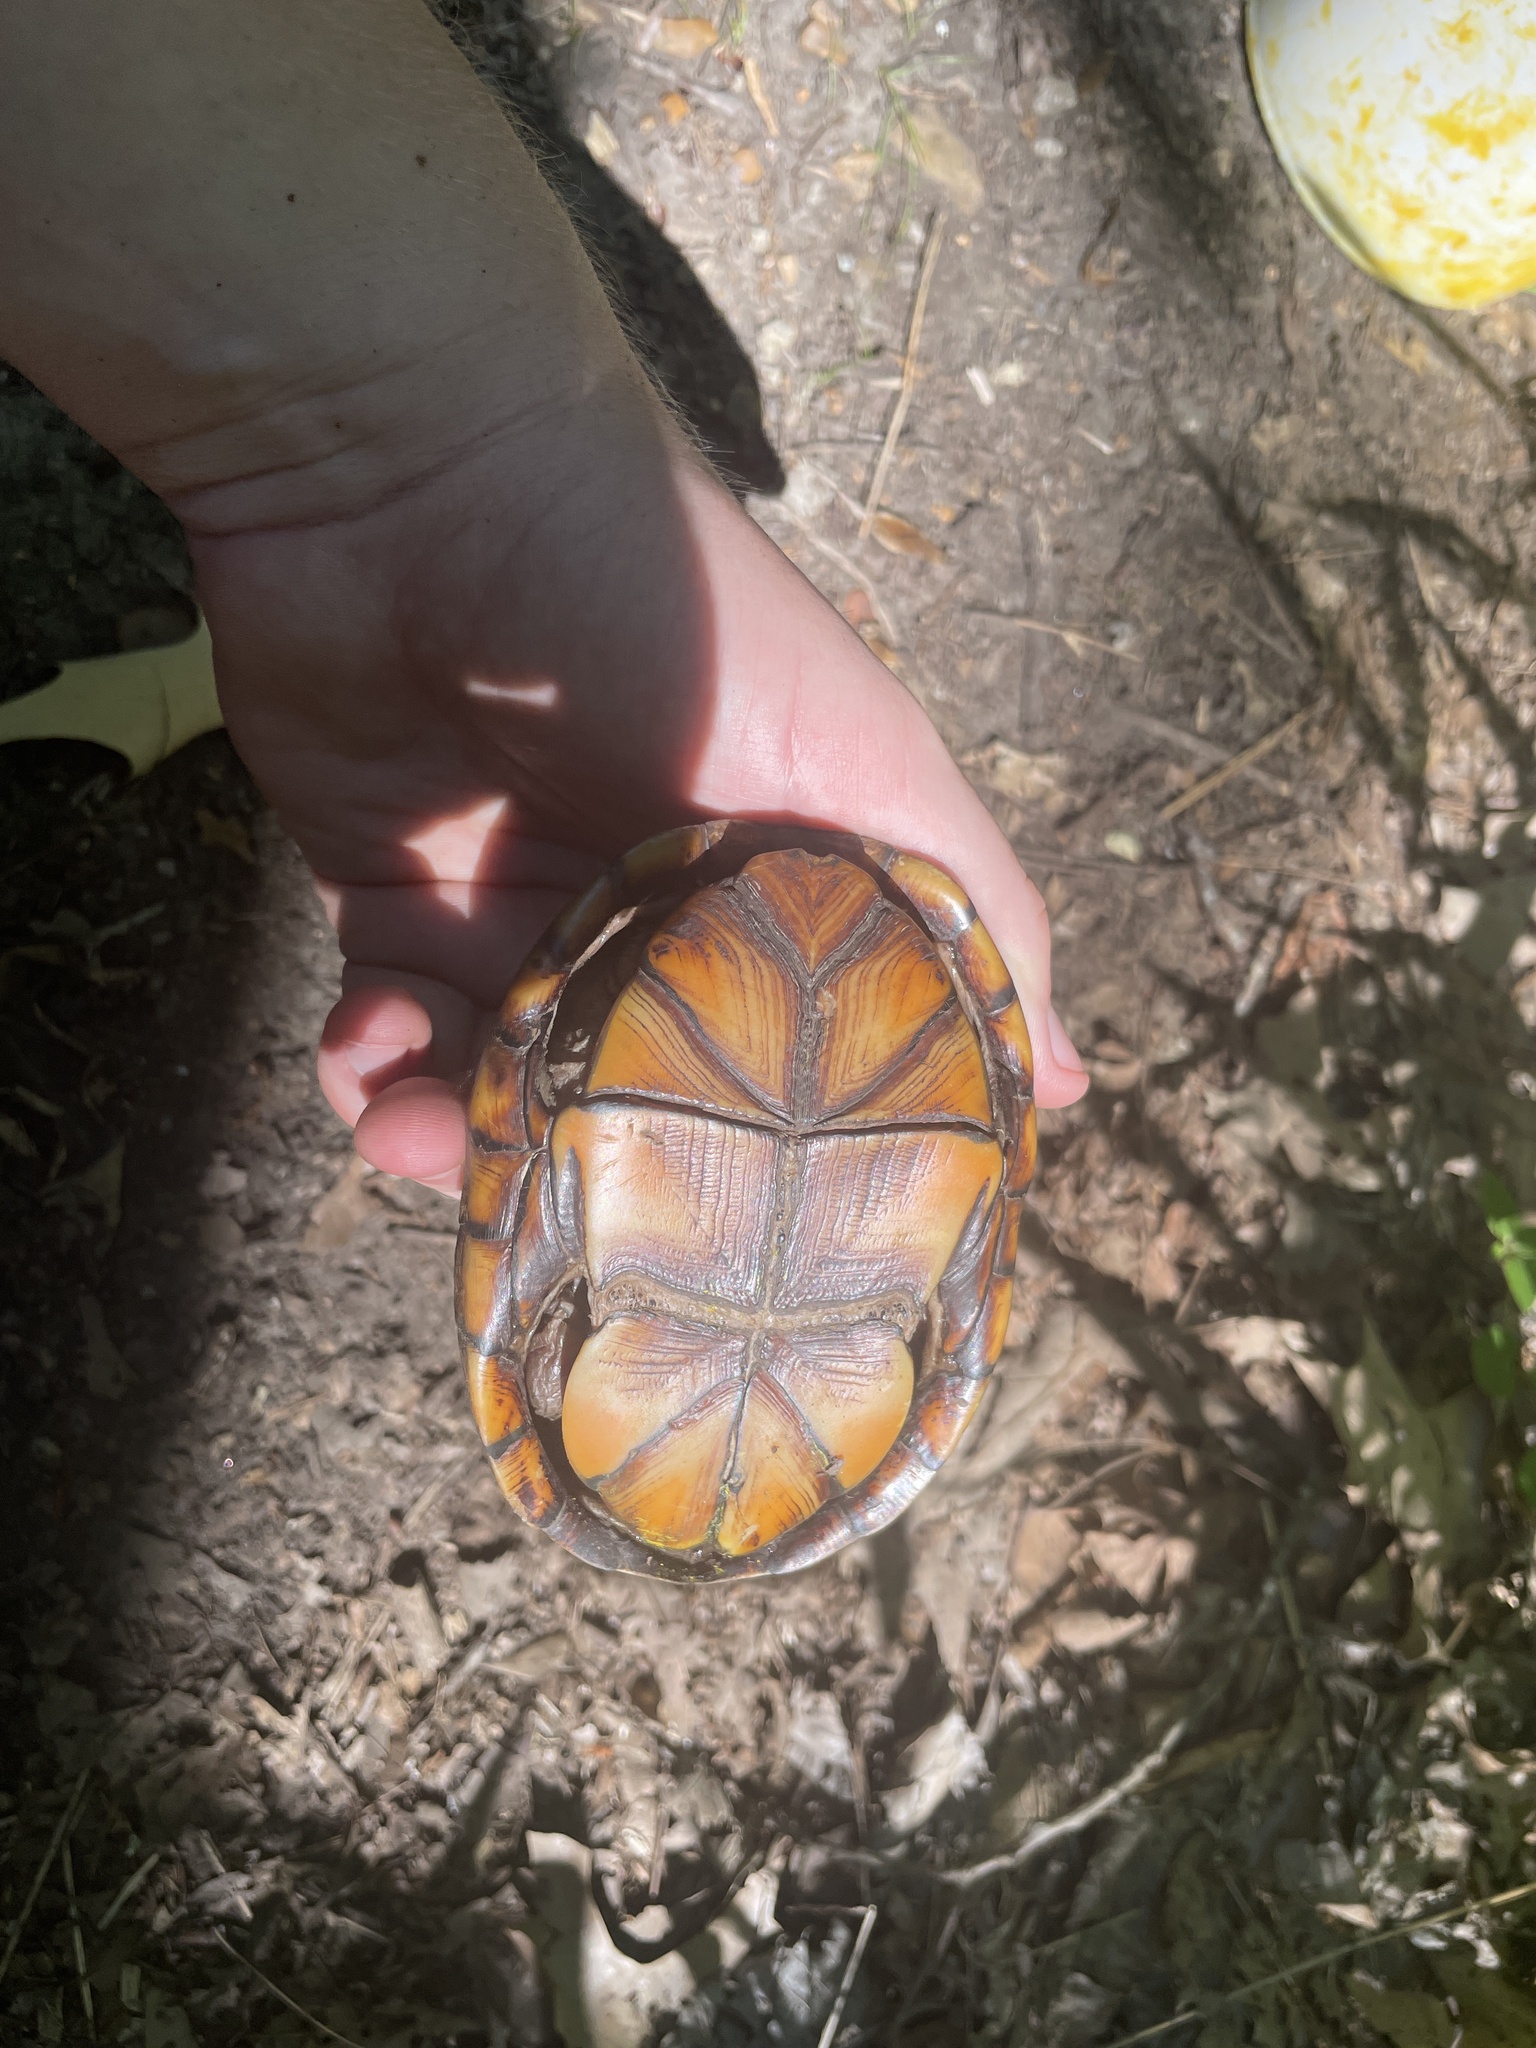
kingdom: Animalia
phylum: Chordata
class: Testudines
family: Kinosternidae
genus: Kinosternon
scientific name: Kinosternon subrubrum
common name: Eastern mud turtle
